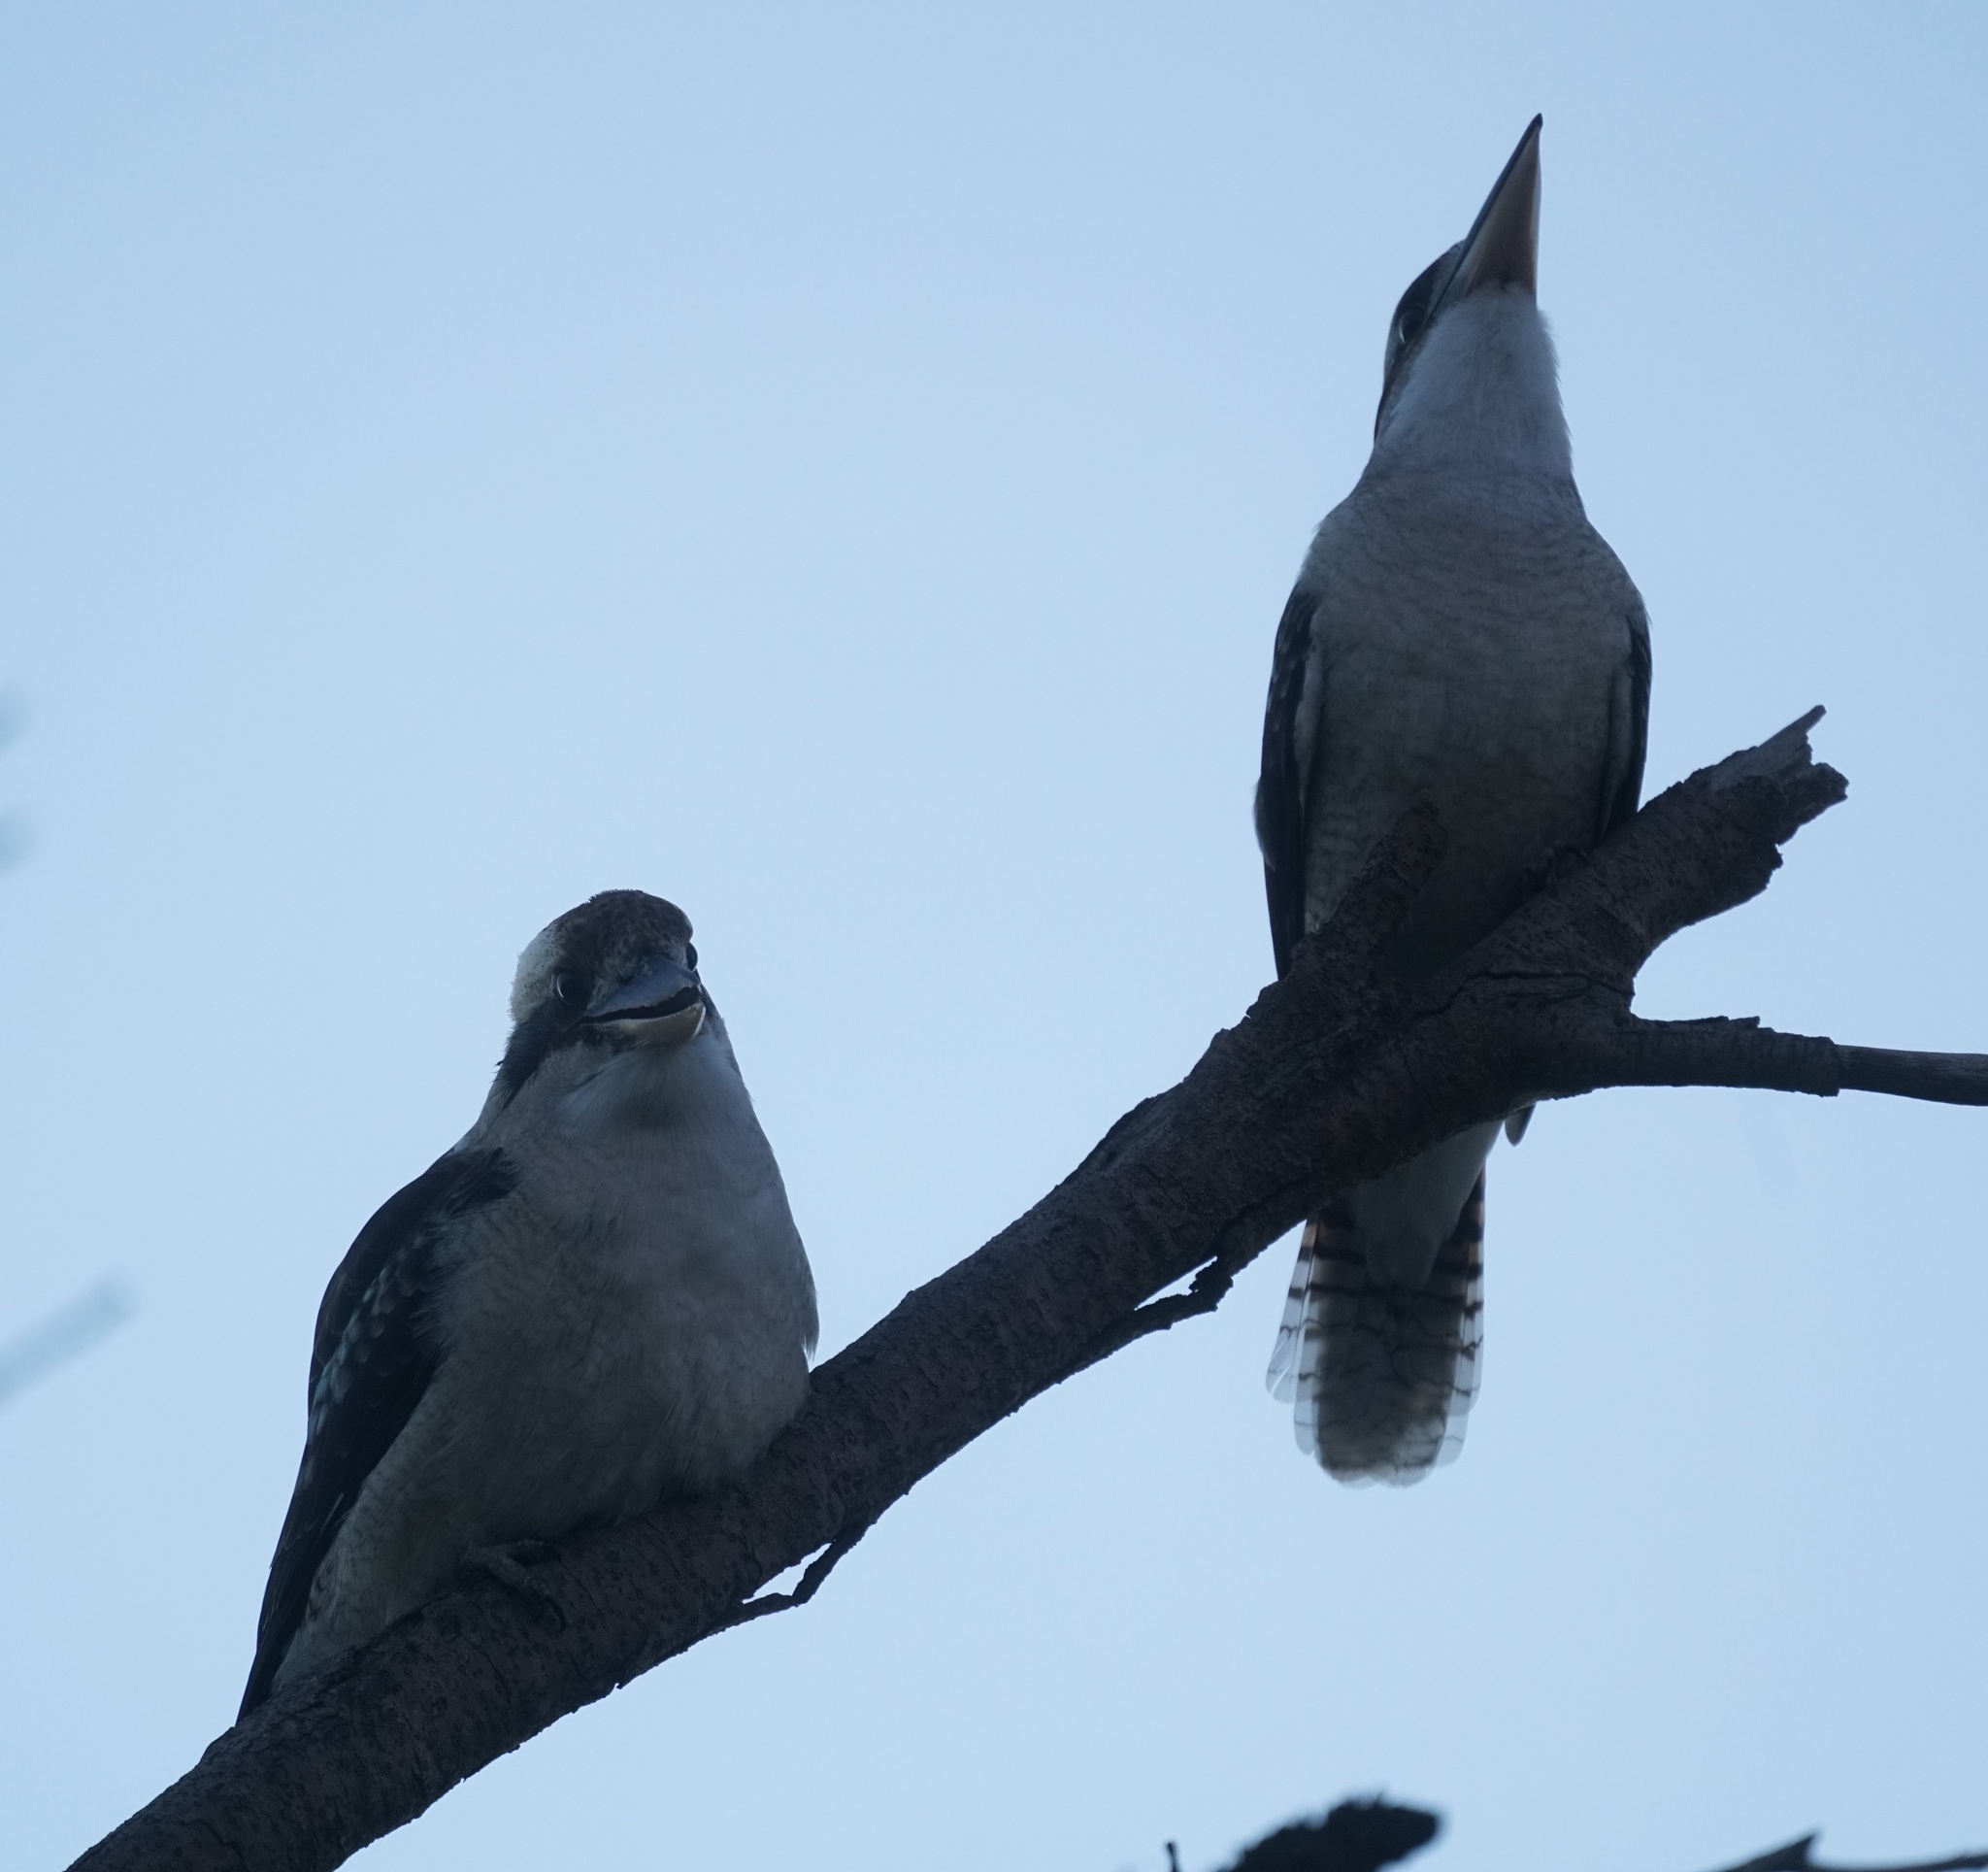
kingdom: Animalia
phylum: Chordata
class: Aves
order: Coraciiformes
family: Alcedinidae
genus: Dacelo
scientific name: Dacelo novaeguineae
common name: Laughing kookaburra
